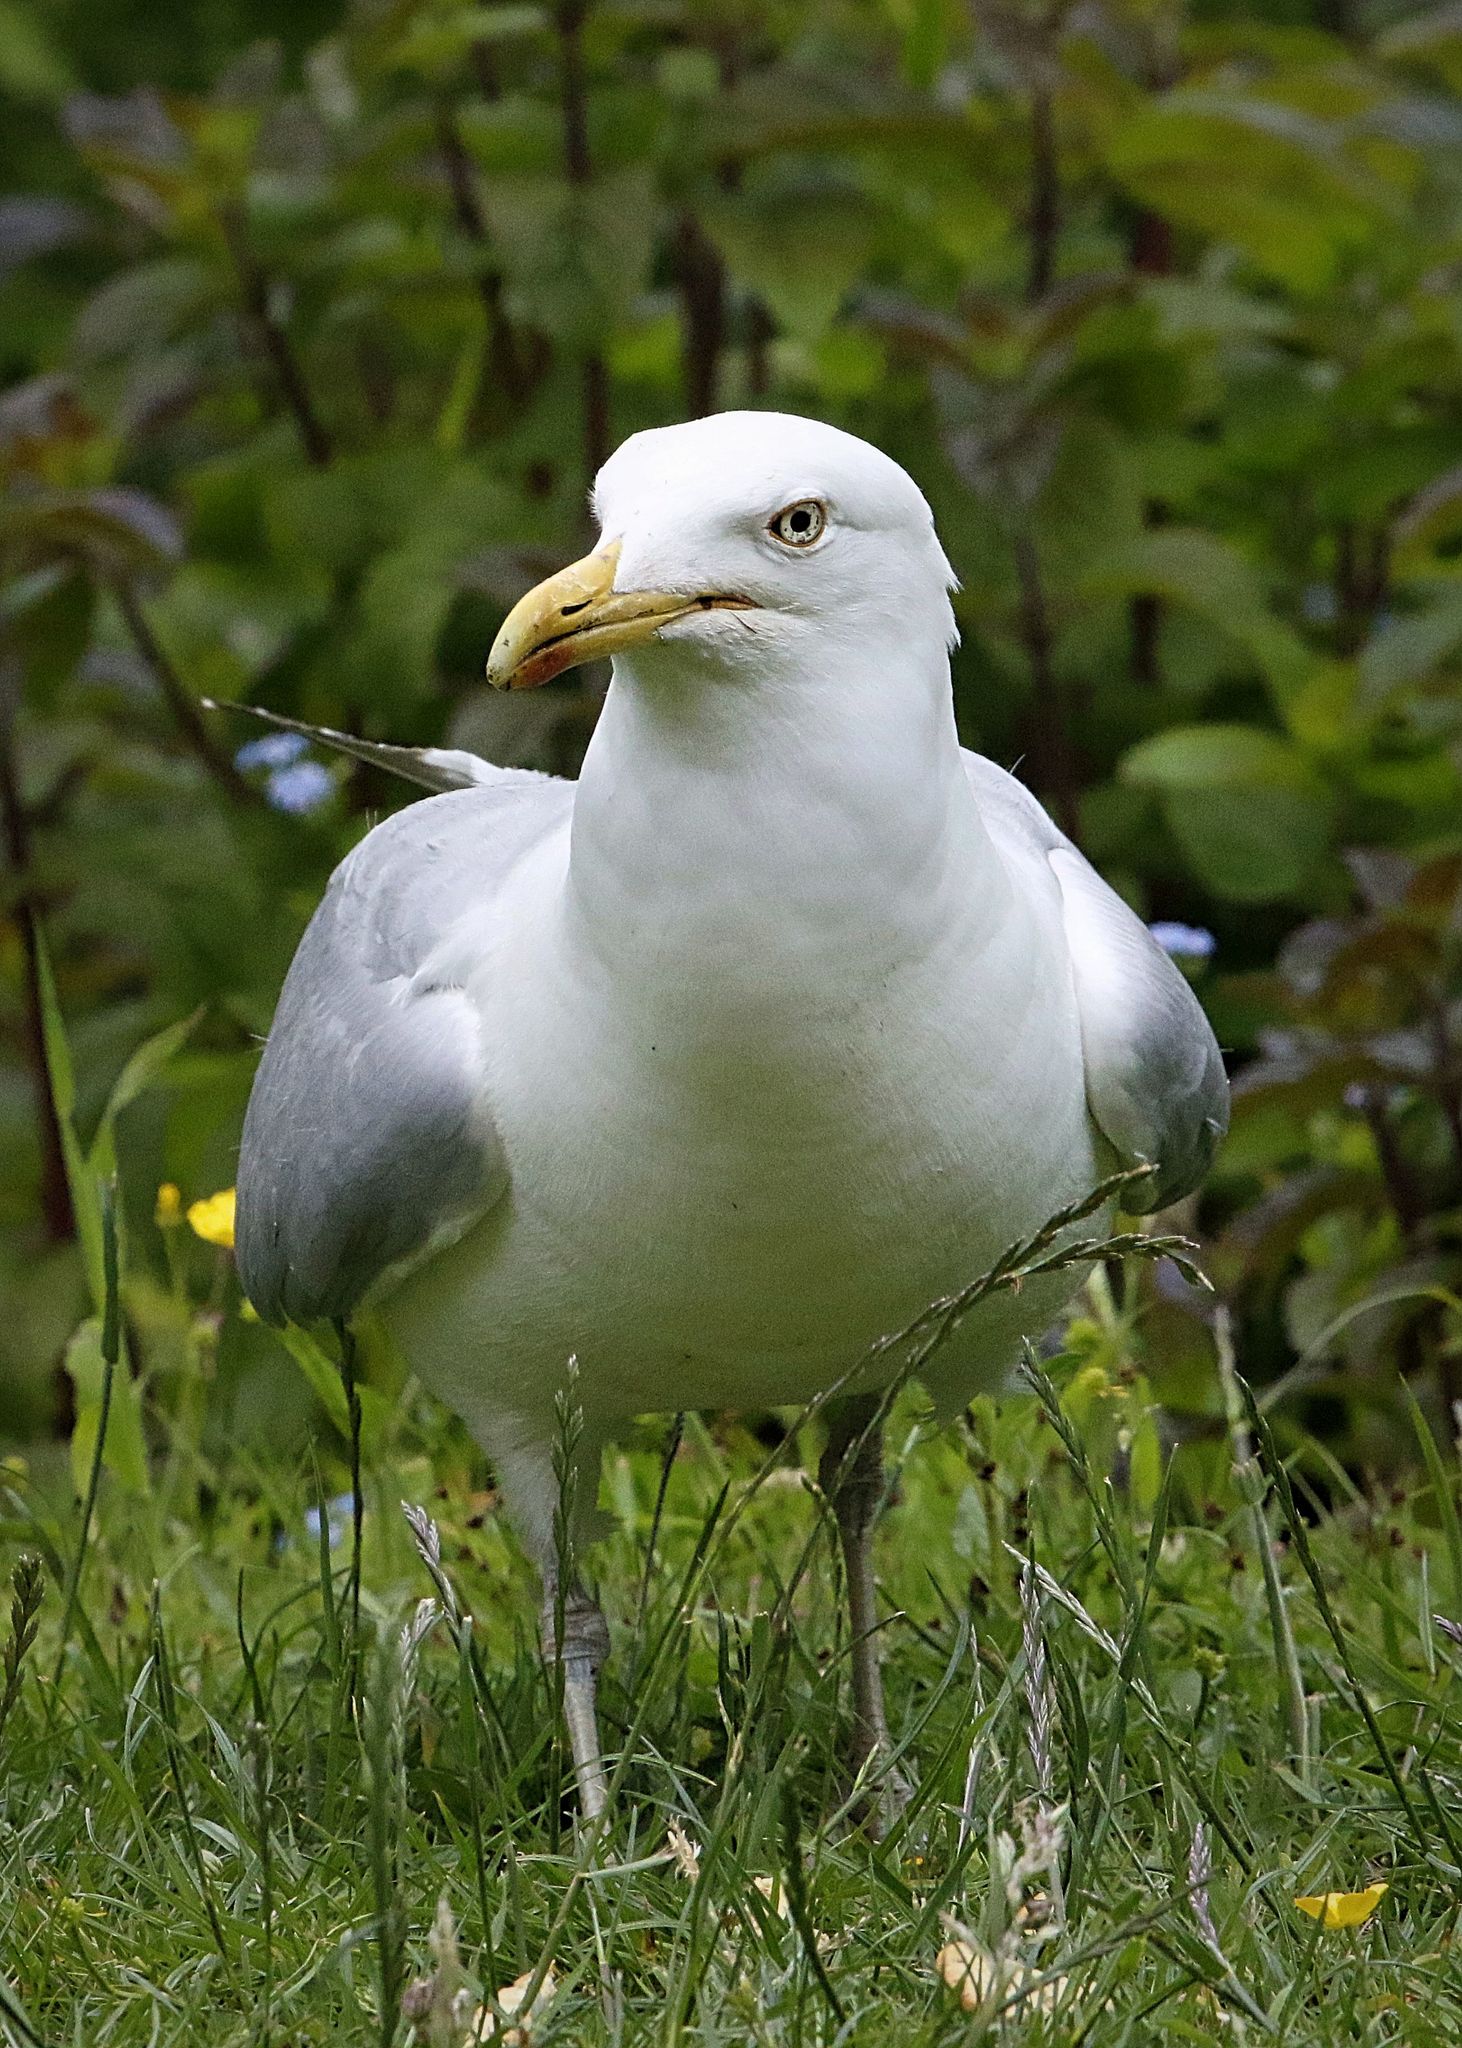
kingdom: Animalia
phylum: Chordata
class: Aves
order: Charadriiformes
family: Laridae
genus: Larus
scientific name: Larus argentatus
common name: Herring gull
